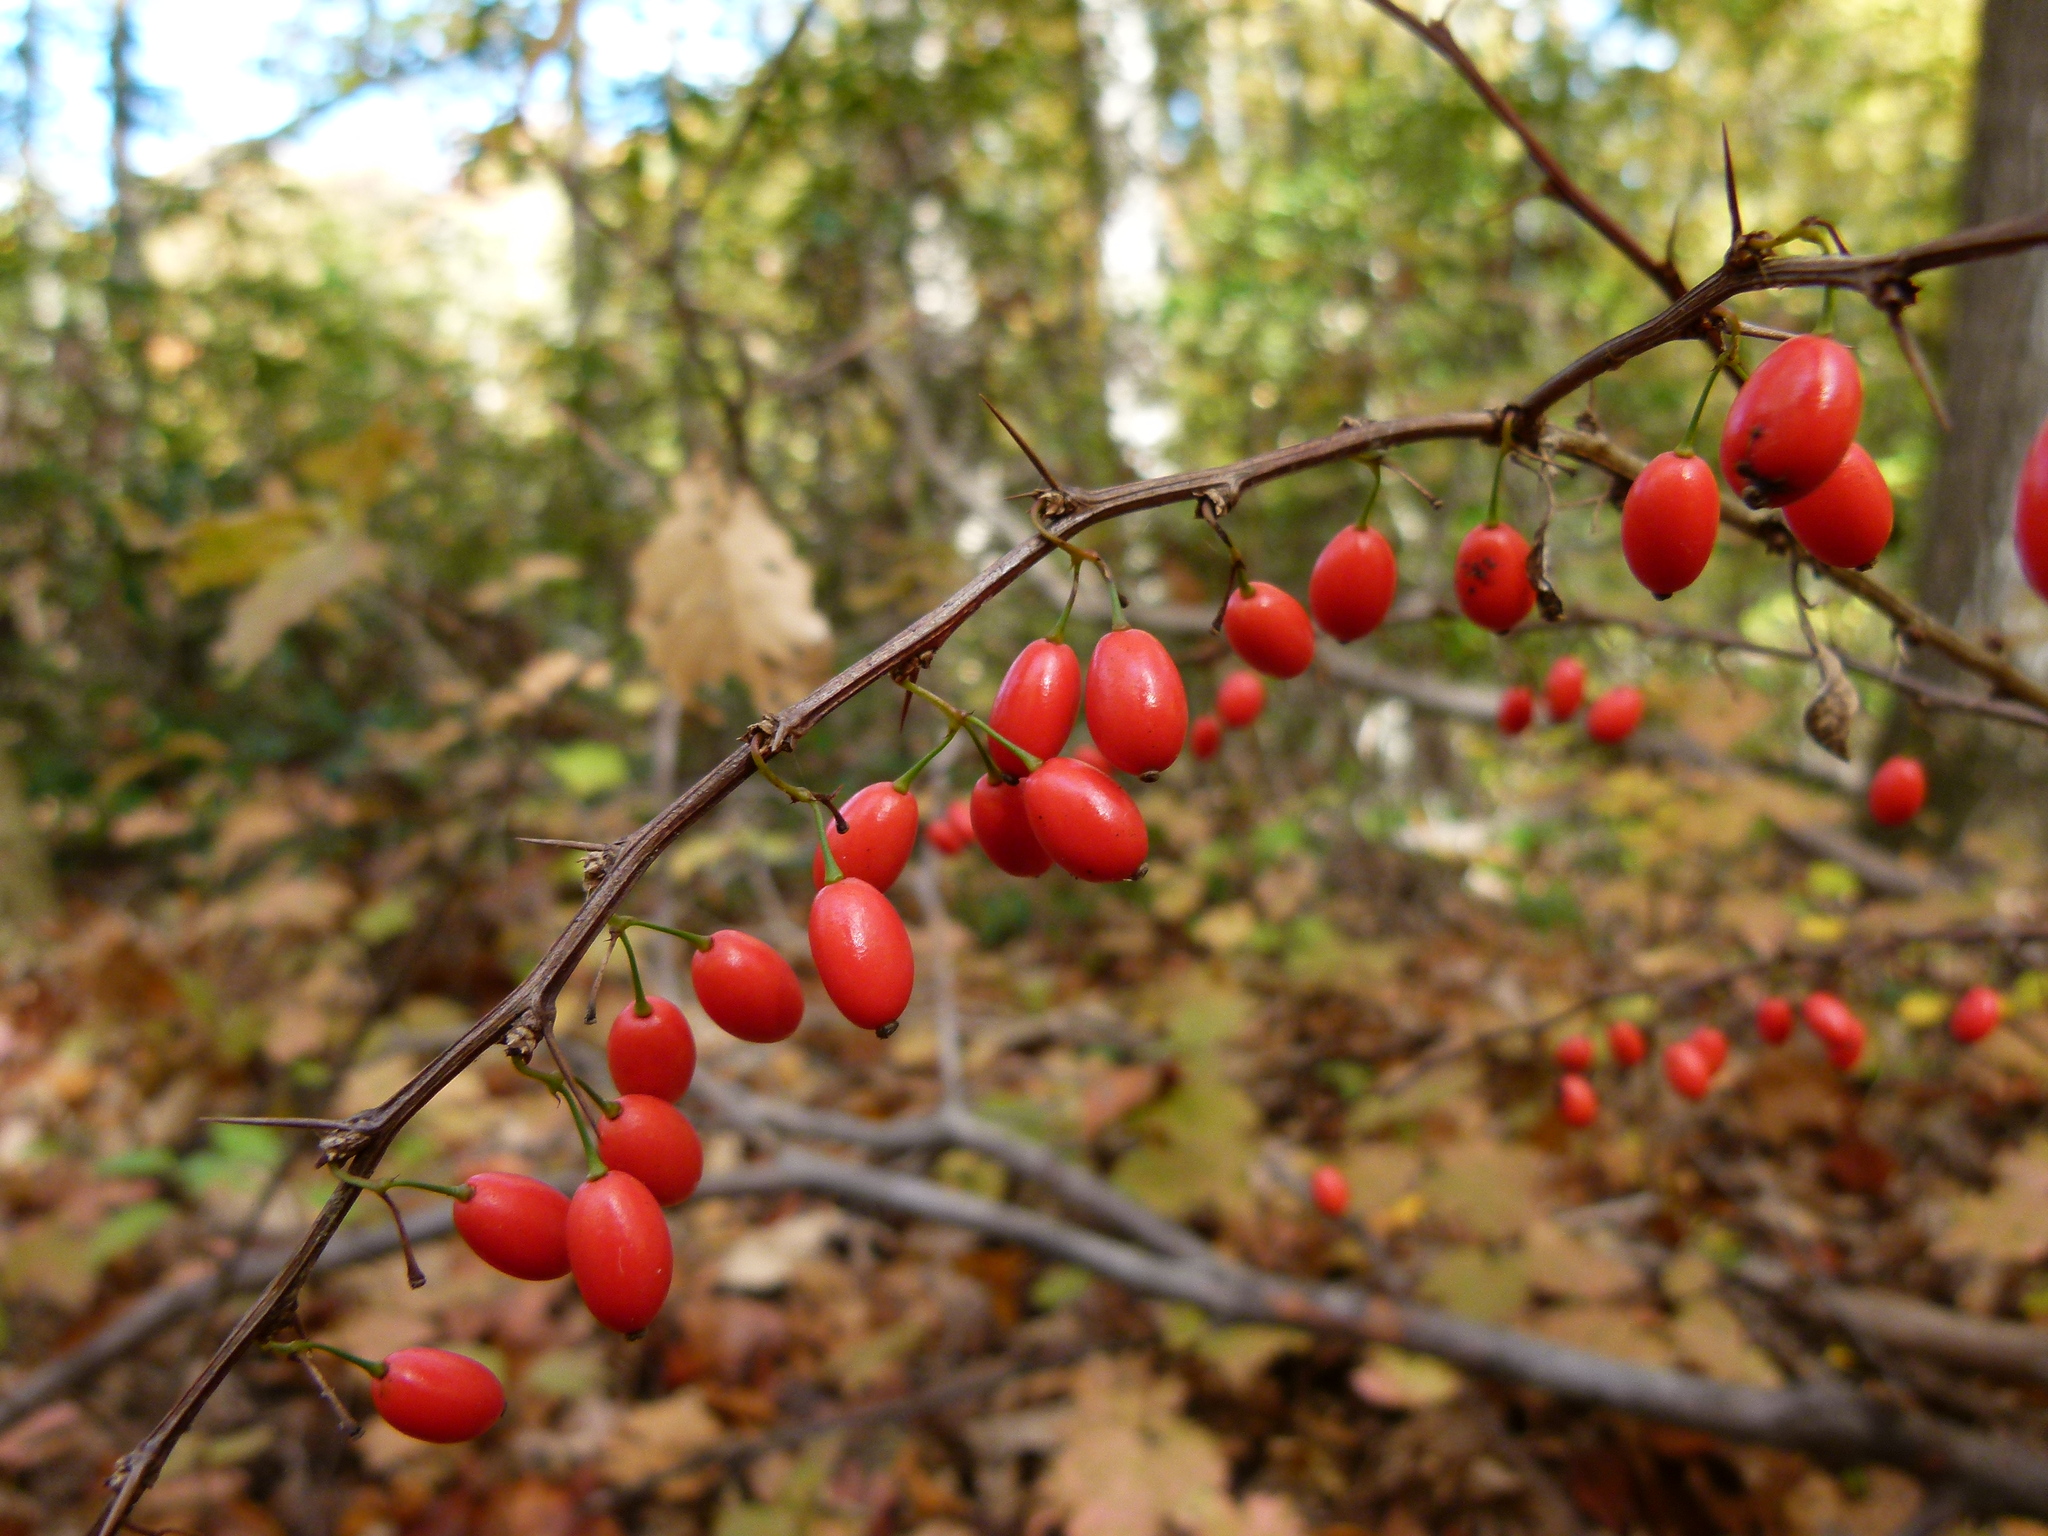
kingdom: Plantae
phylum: Tracheophyta
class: Magnoliopsida
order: Ranunculales
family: Berberidaceae
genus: Berberis
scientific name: Berberis thunbergii
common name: Japanese barberry
